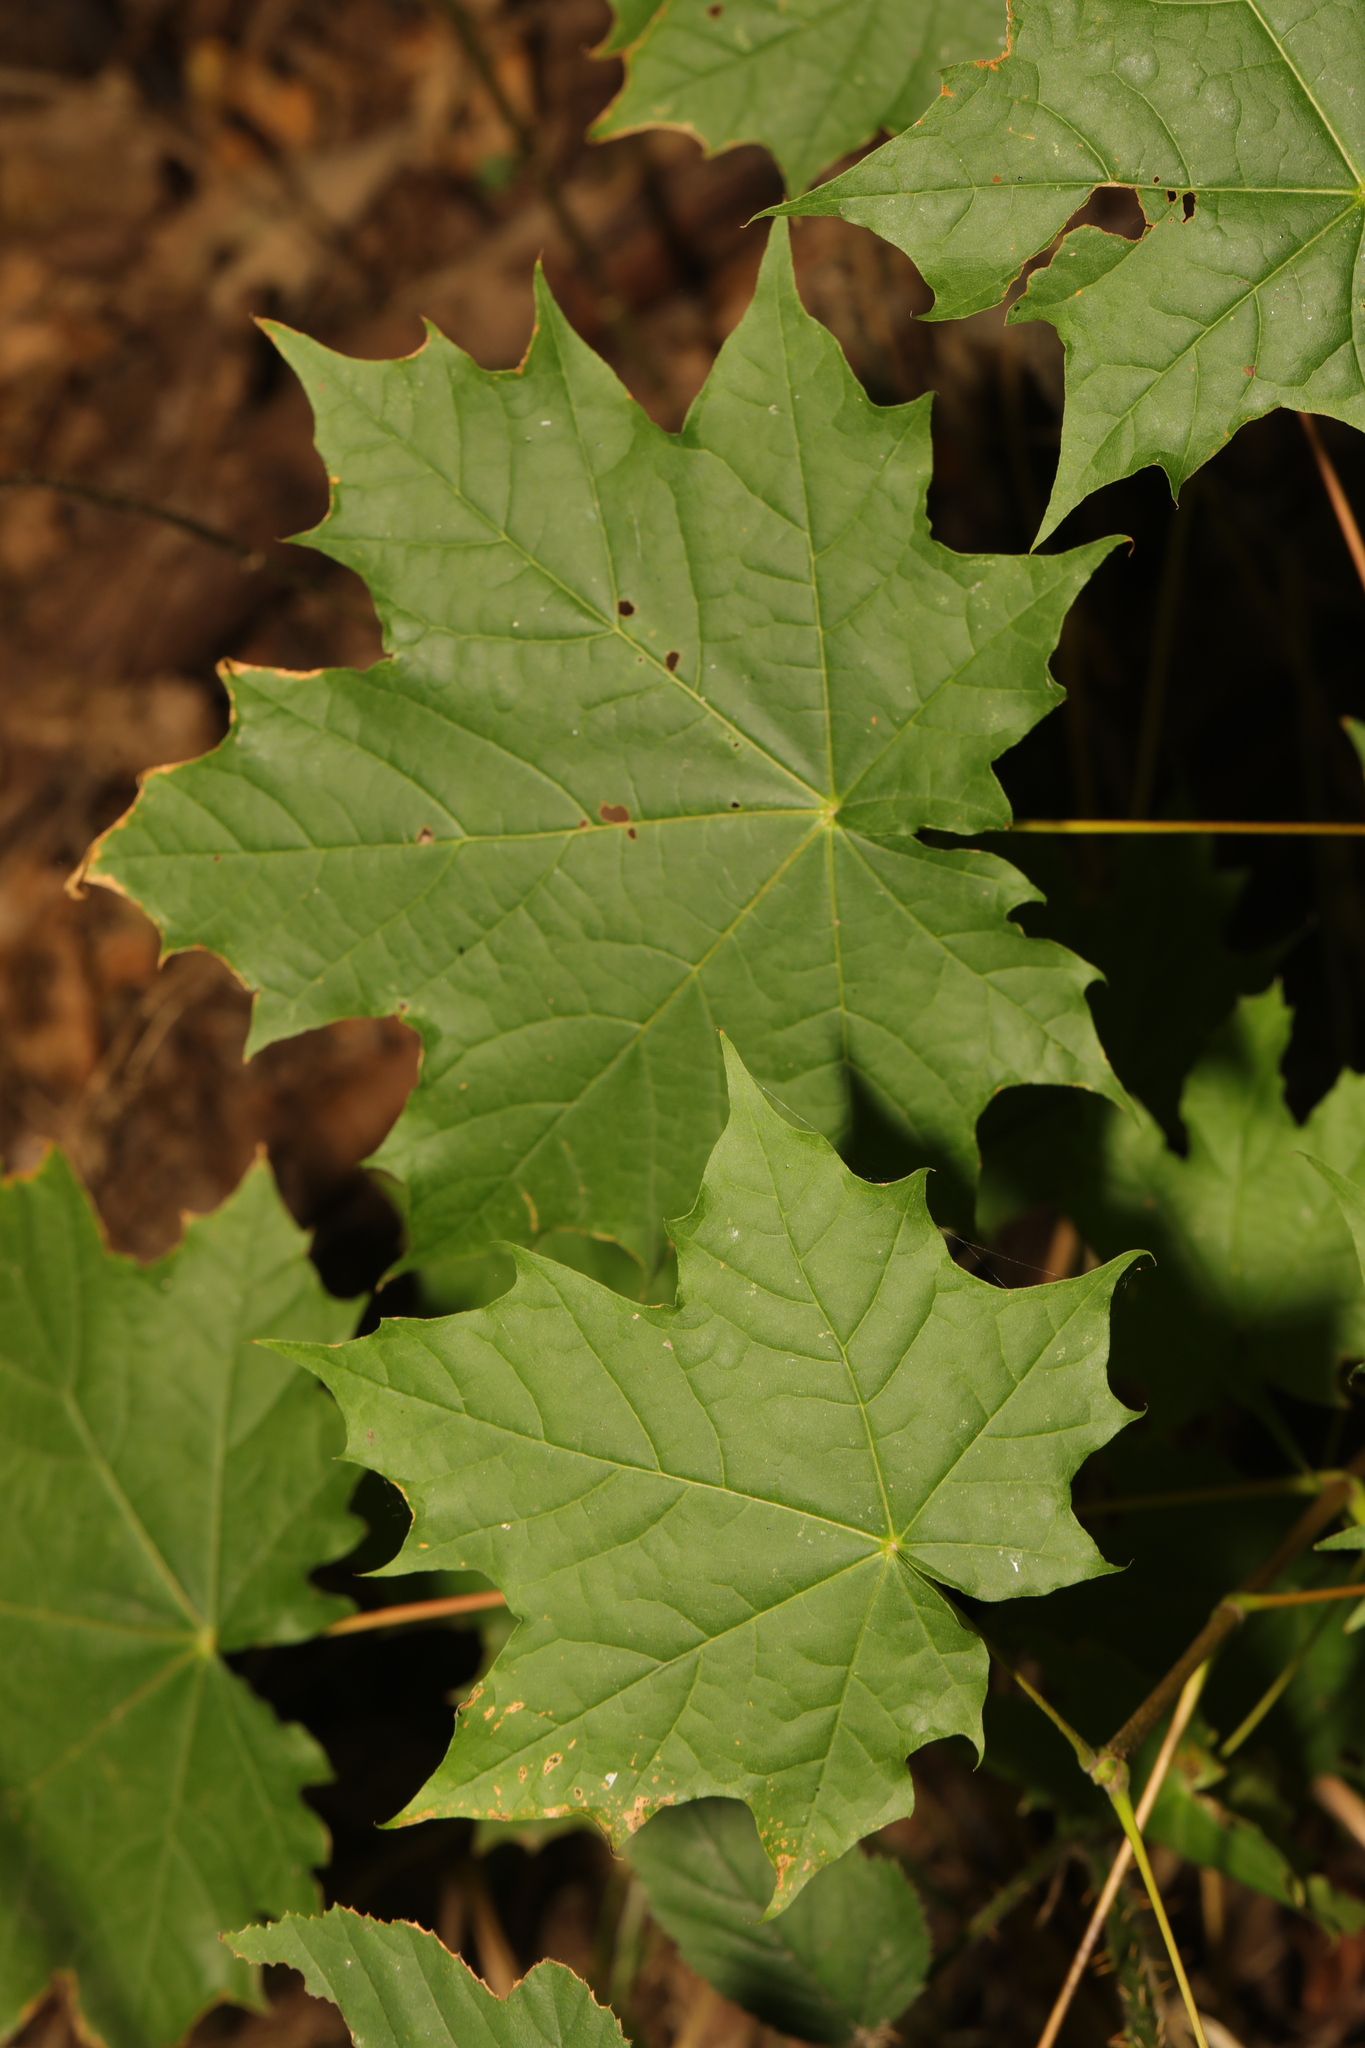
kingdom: Plantae
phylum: Tracheophyta
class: Magnoliopsida
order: Sapindales
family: Sapindaceae
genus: Acer
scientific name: Acer platanoides
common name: Norway maple
